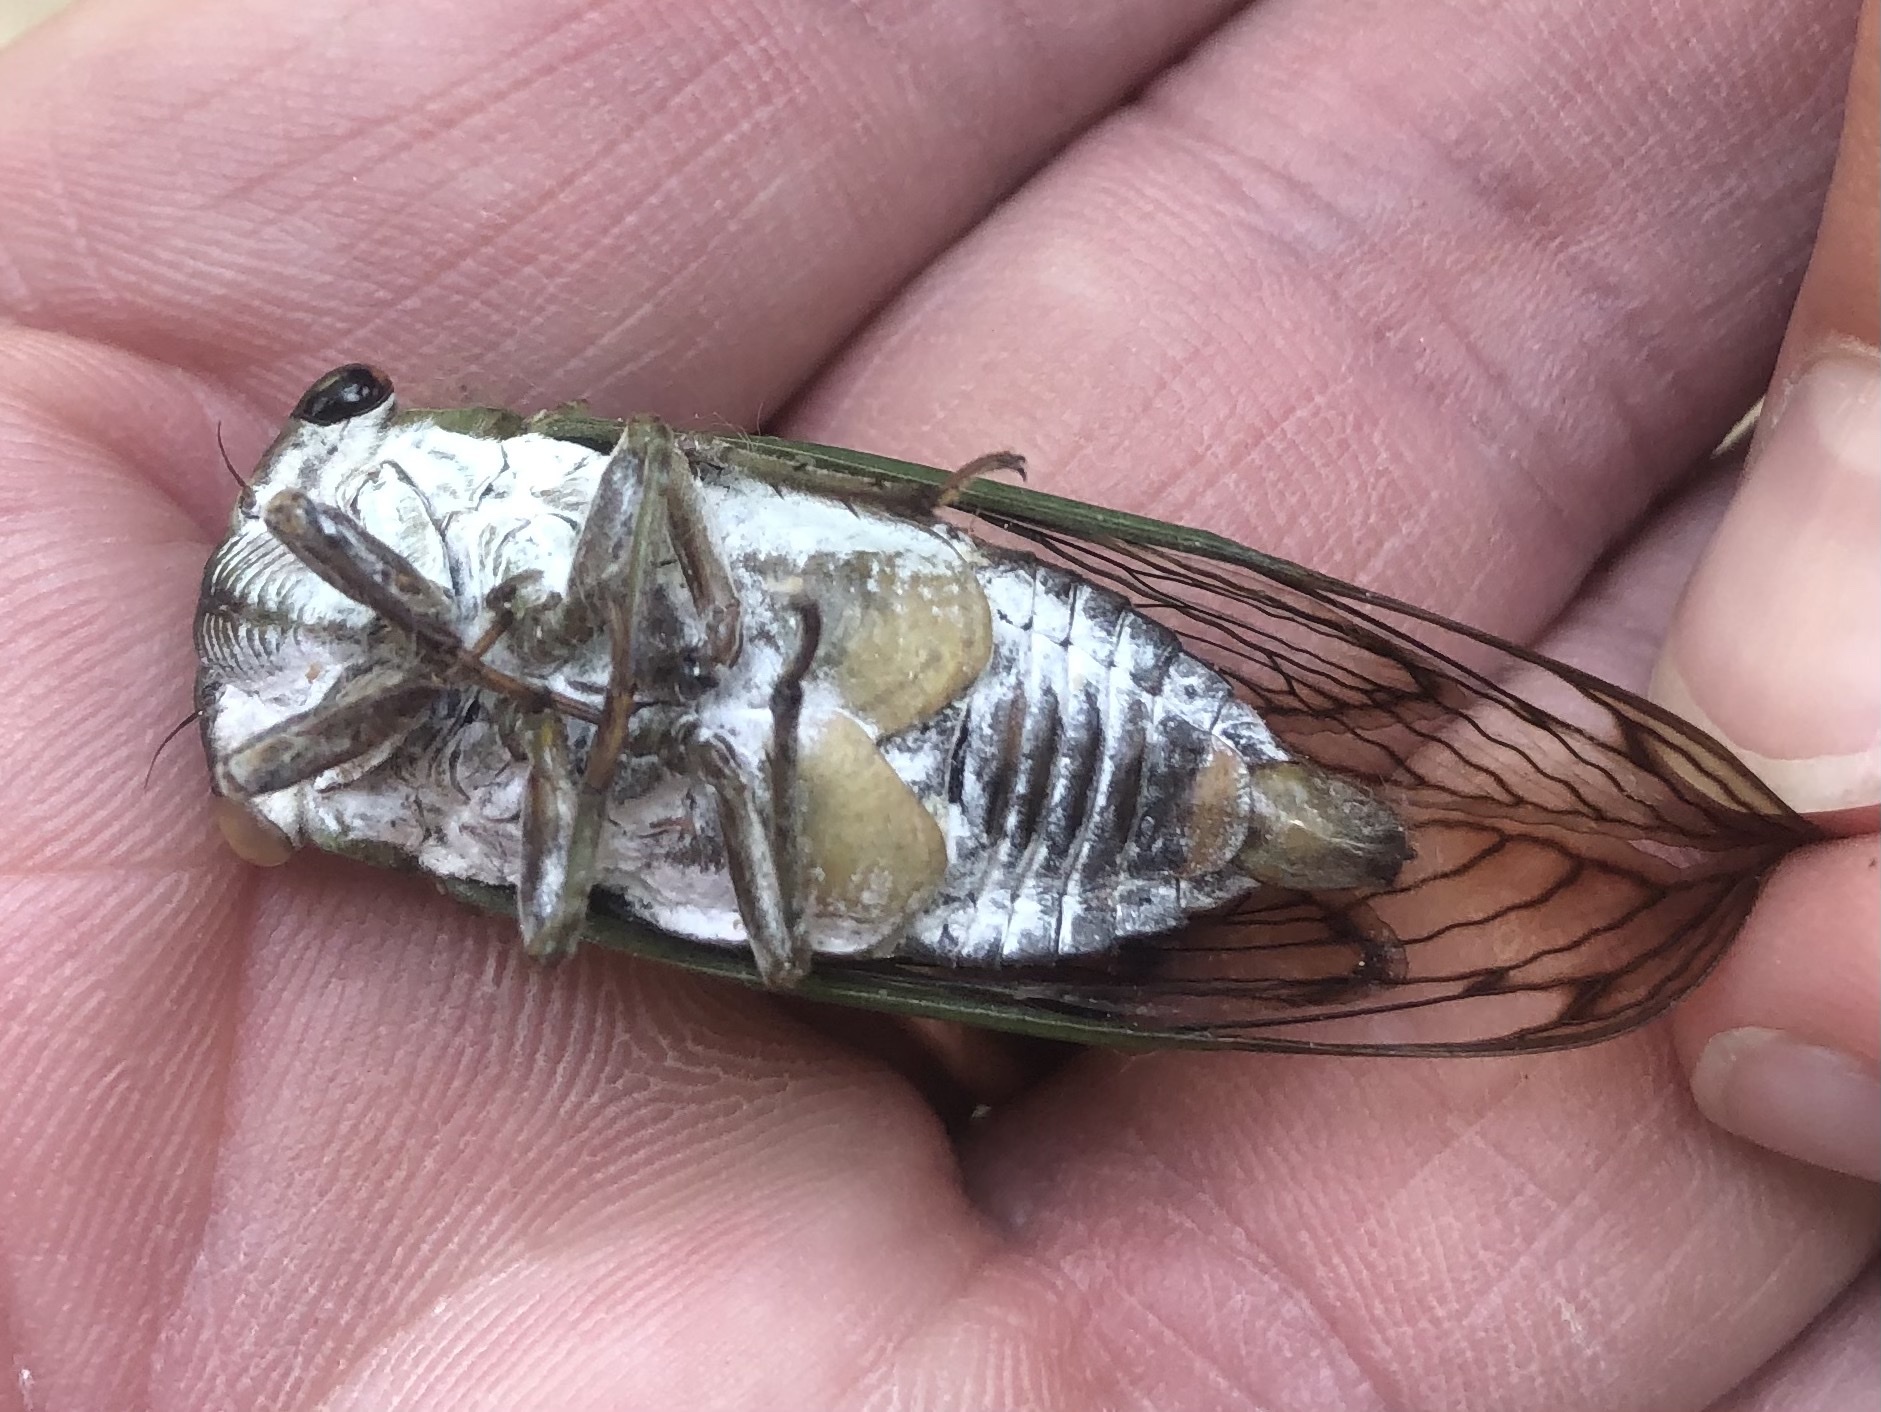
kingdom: Animalia
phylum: Arthropoda
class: Insecta
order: Hemiptera
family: Cicadidae
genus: Neotibicen
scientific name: Neotibicen superbus
